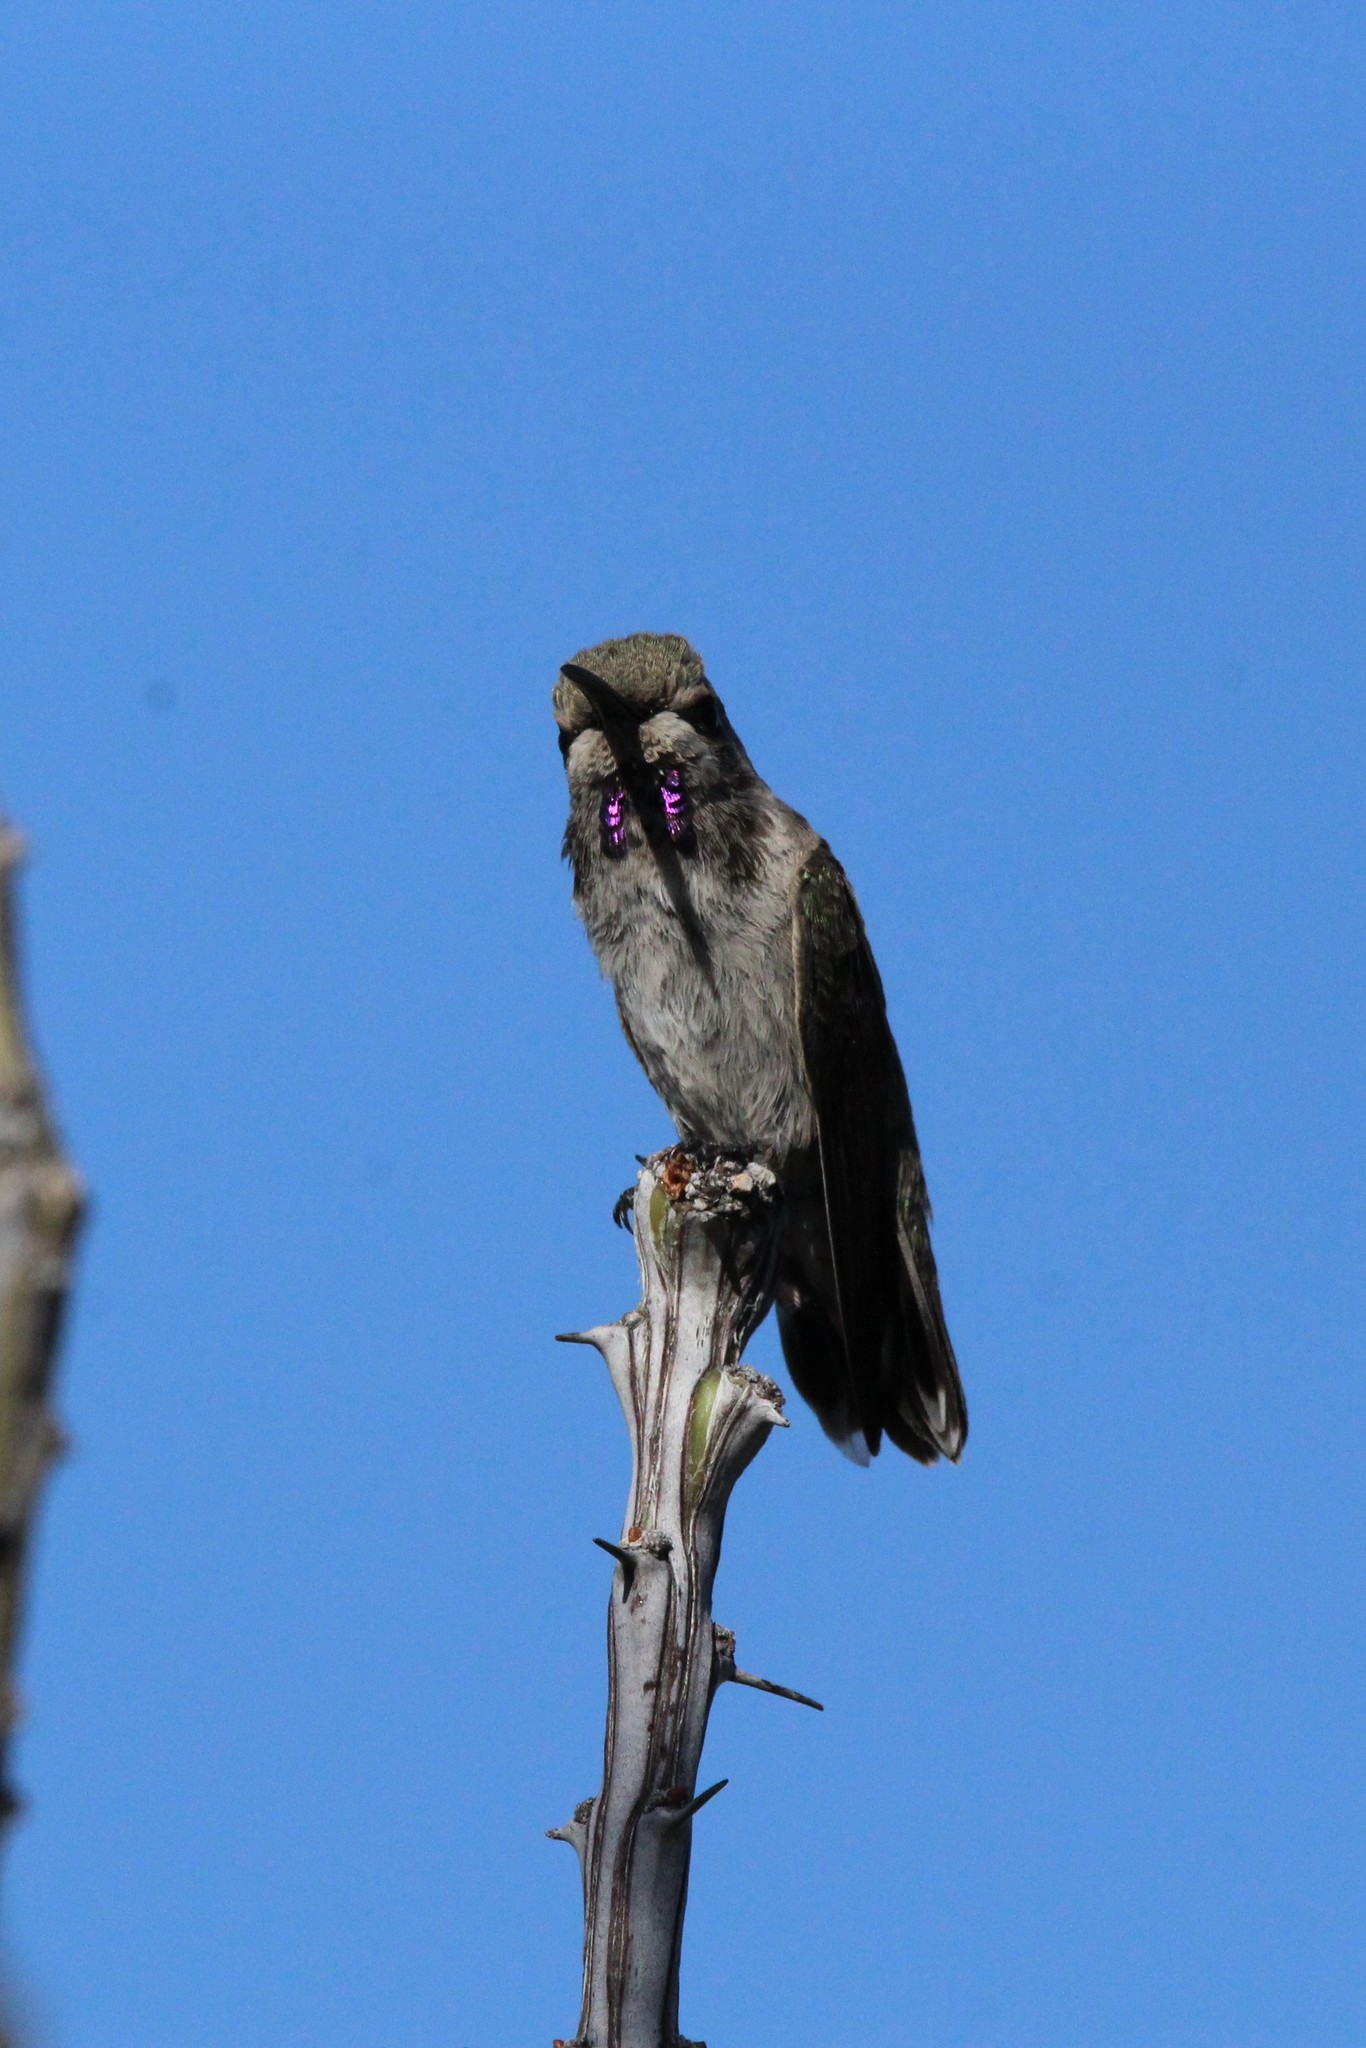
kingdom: Animalia
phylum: Chordata
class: Aves
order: Apodiformes
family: Trochilidae
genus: Calypte
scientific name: Calypte costae
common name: Costa's hummingbird
